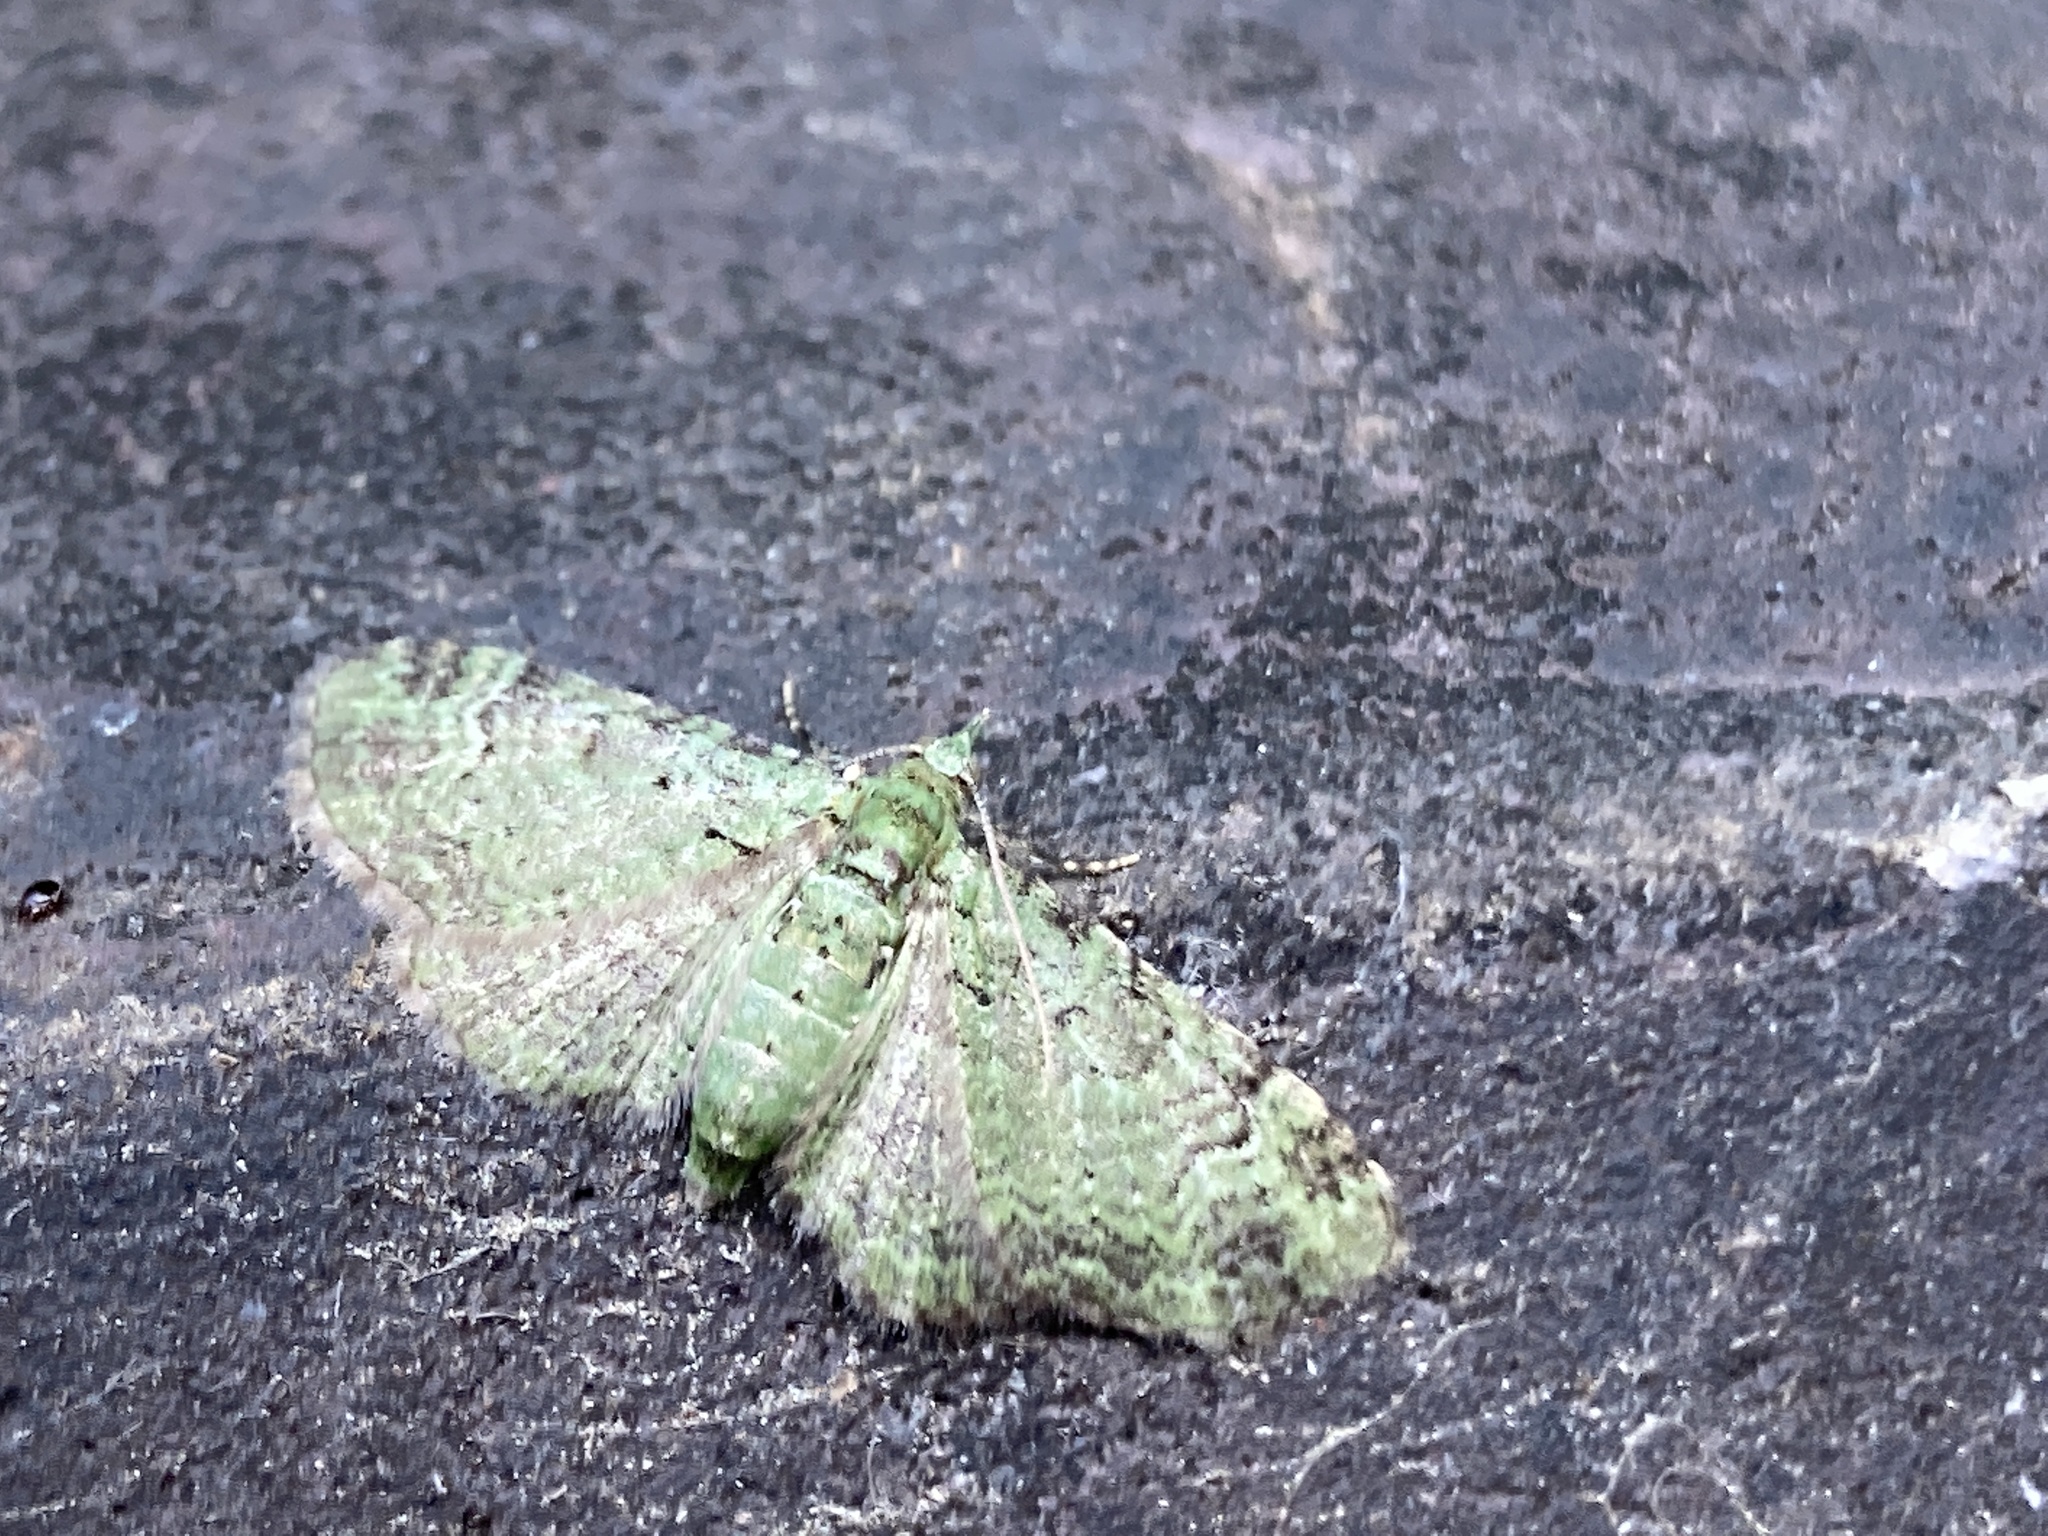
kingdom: Animalia
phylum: Arthropoda
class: Insecta
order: Lepidoptera
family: Geometridae
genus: Pasiphila
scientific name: Pasiphila rectangulata
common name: Green pug
